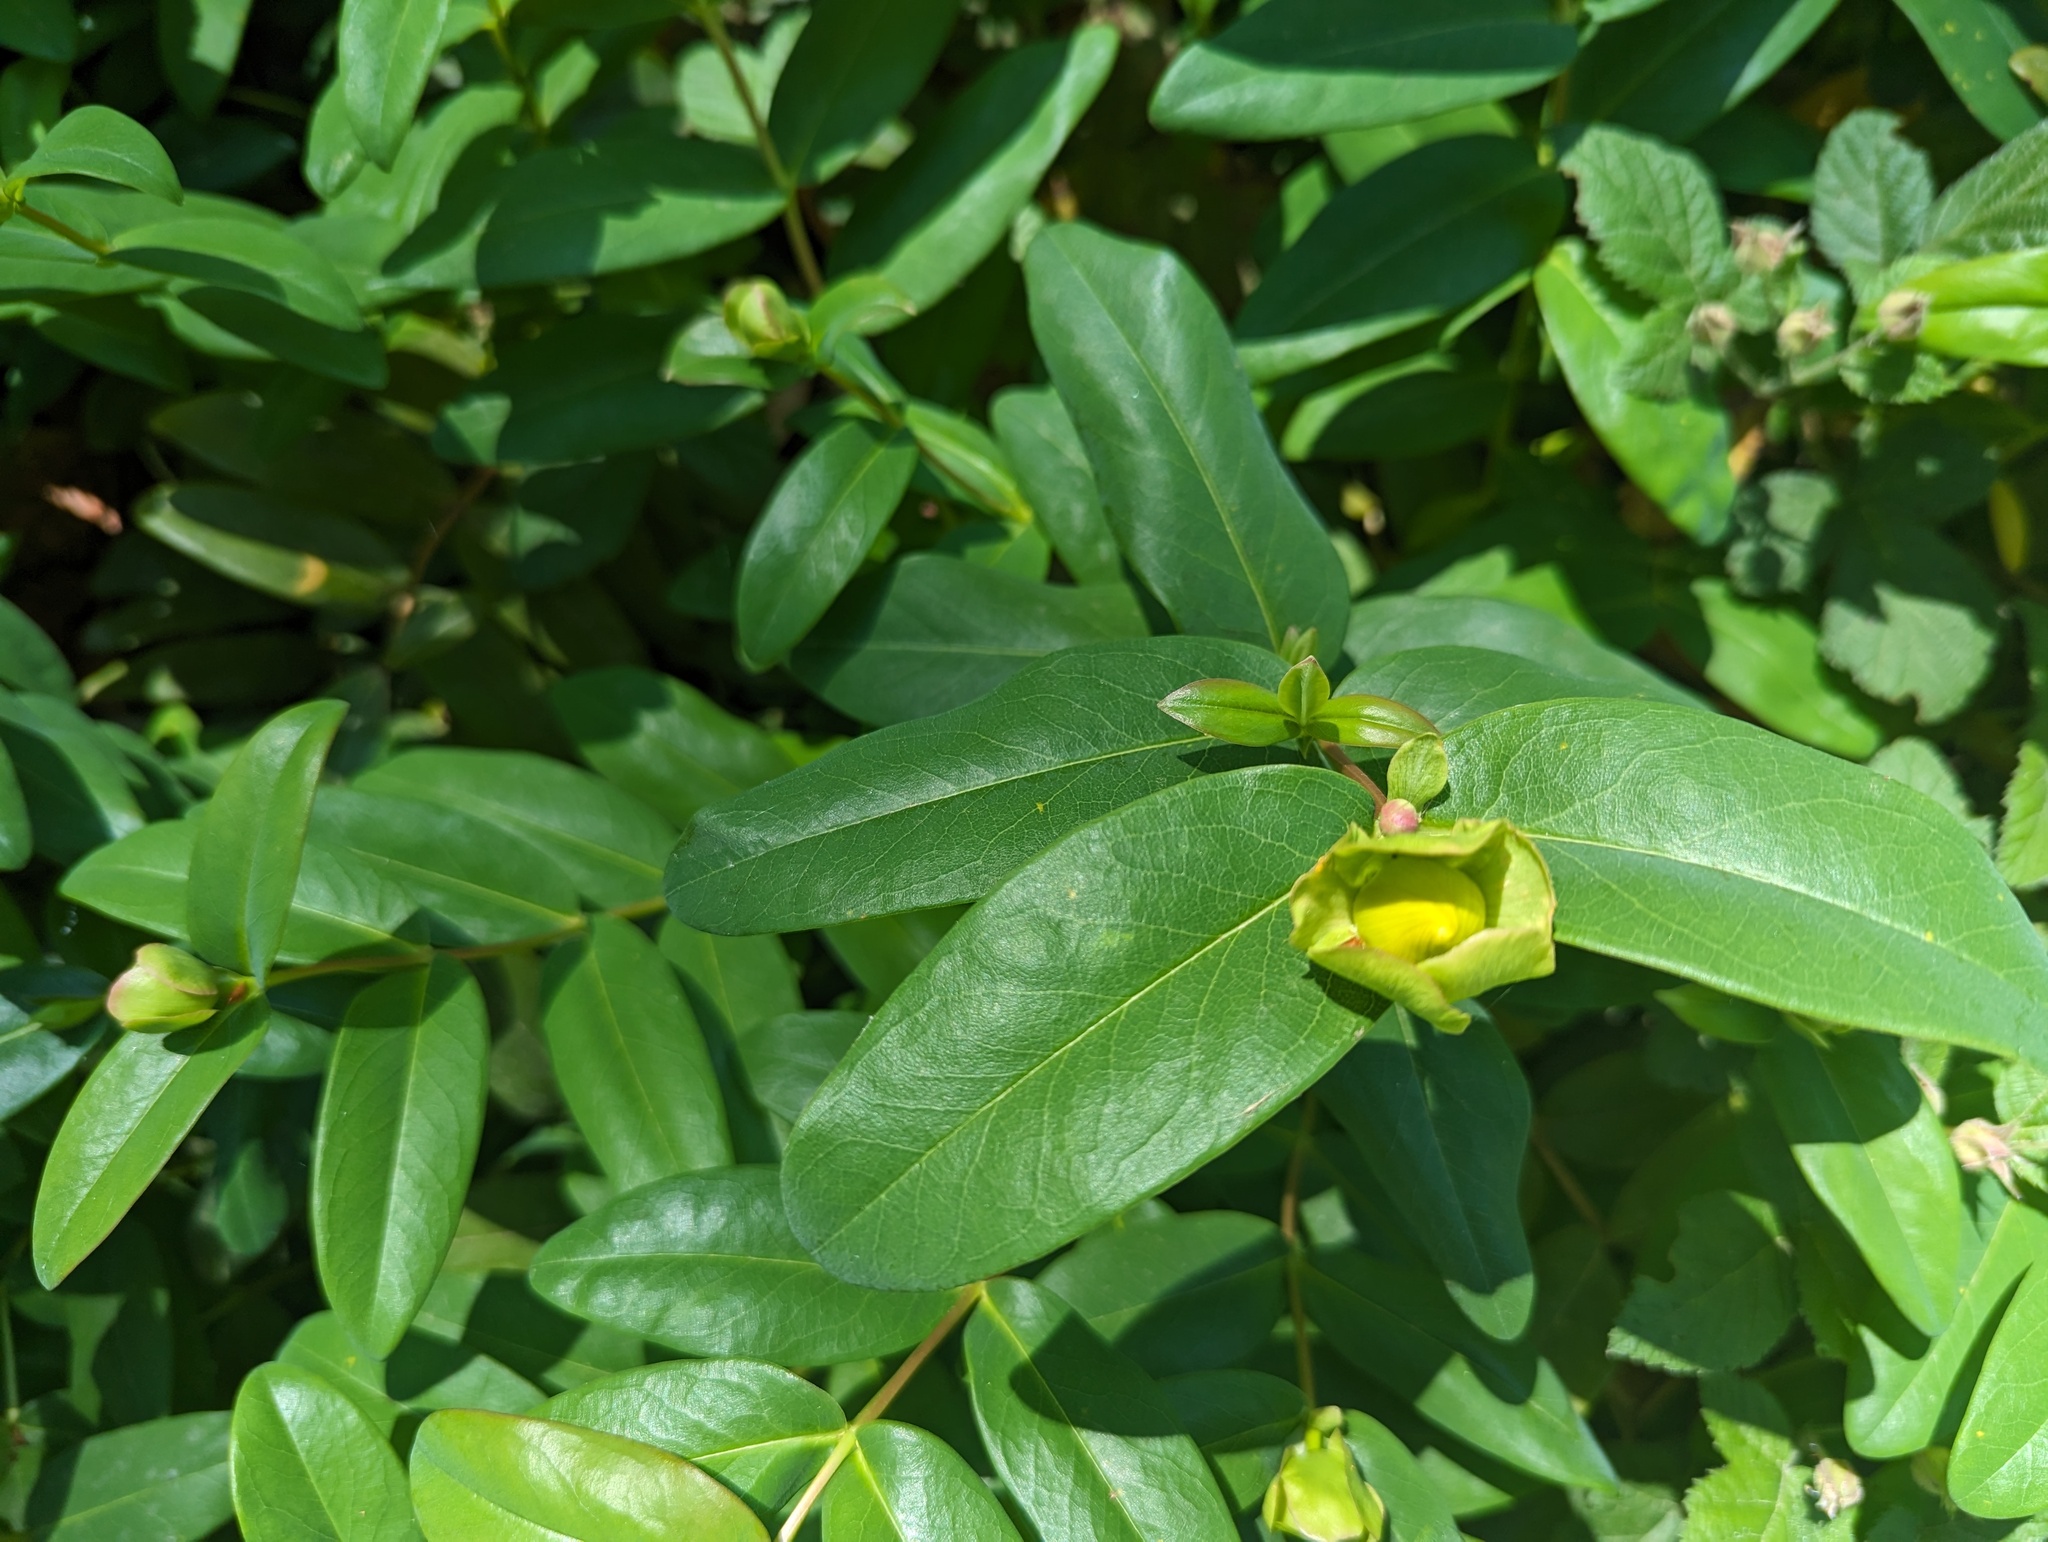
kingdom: Plantae
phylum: Tracheophyta
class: Magnoliopsida
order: Malpighiales
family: Hypericaceae
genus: Hypericum
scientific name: Hypericum calycinum
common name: Rose-of-sharon
